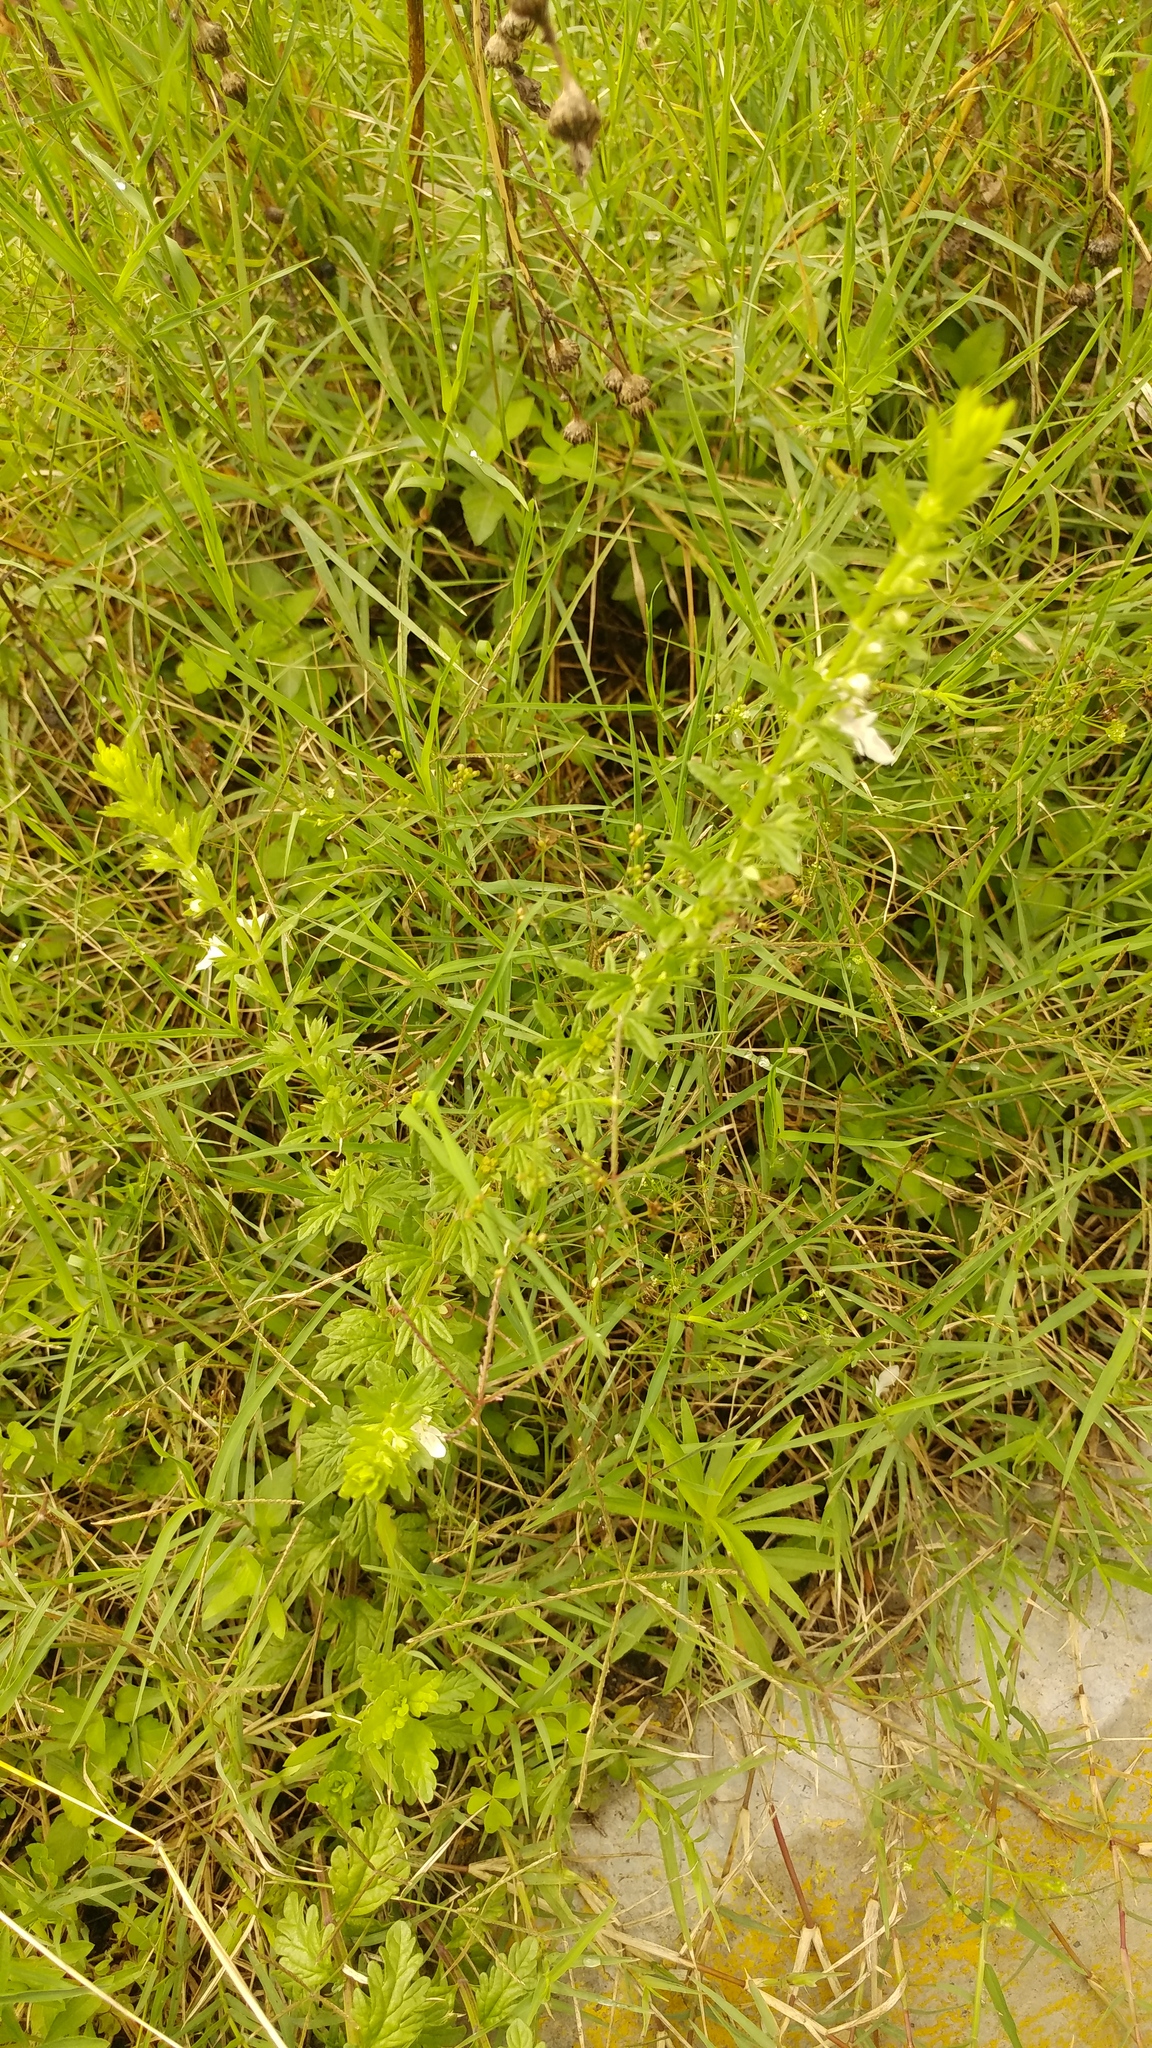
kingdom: Plantae
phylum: Tracheophyta
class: Magnoliopsida
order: Lamiales
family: Lamiaceae
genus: Teucrium
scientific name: Teucrium cubense
